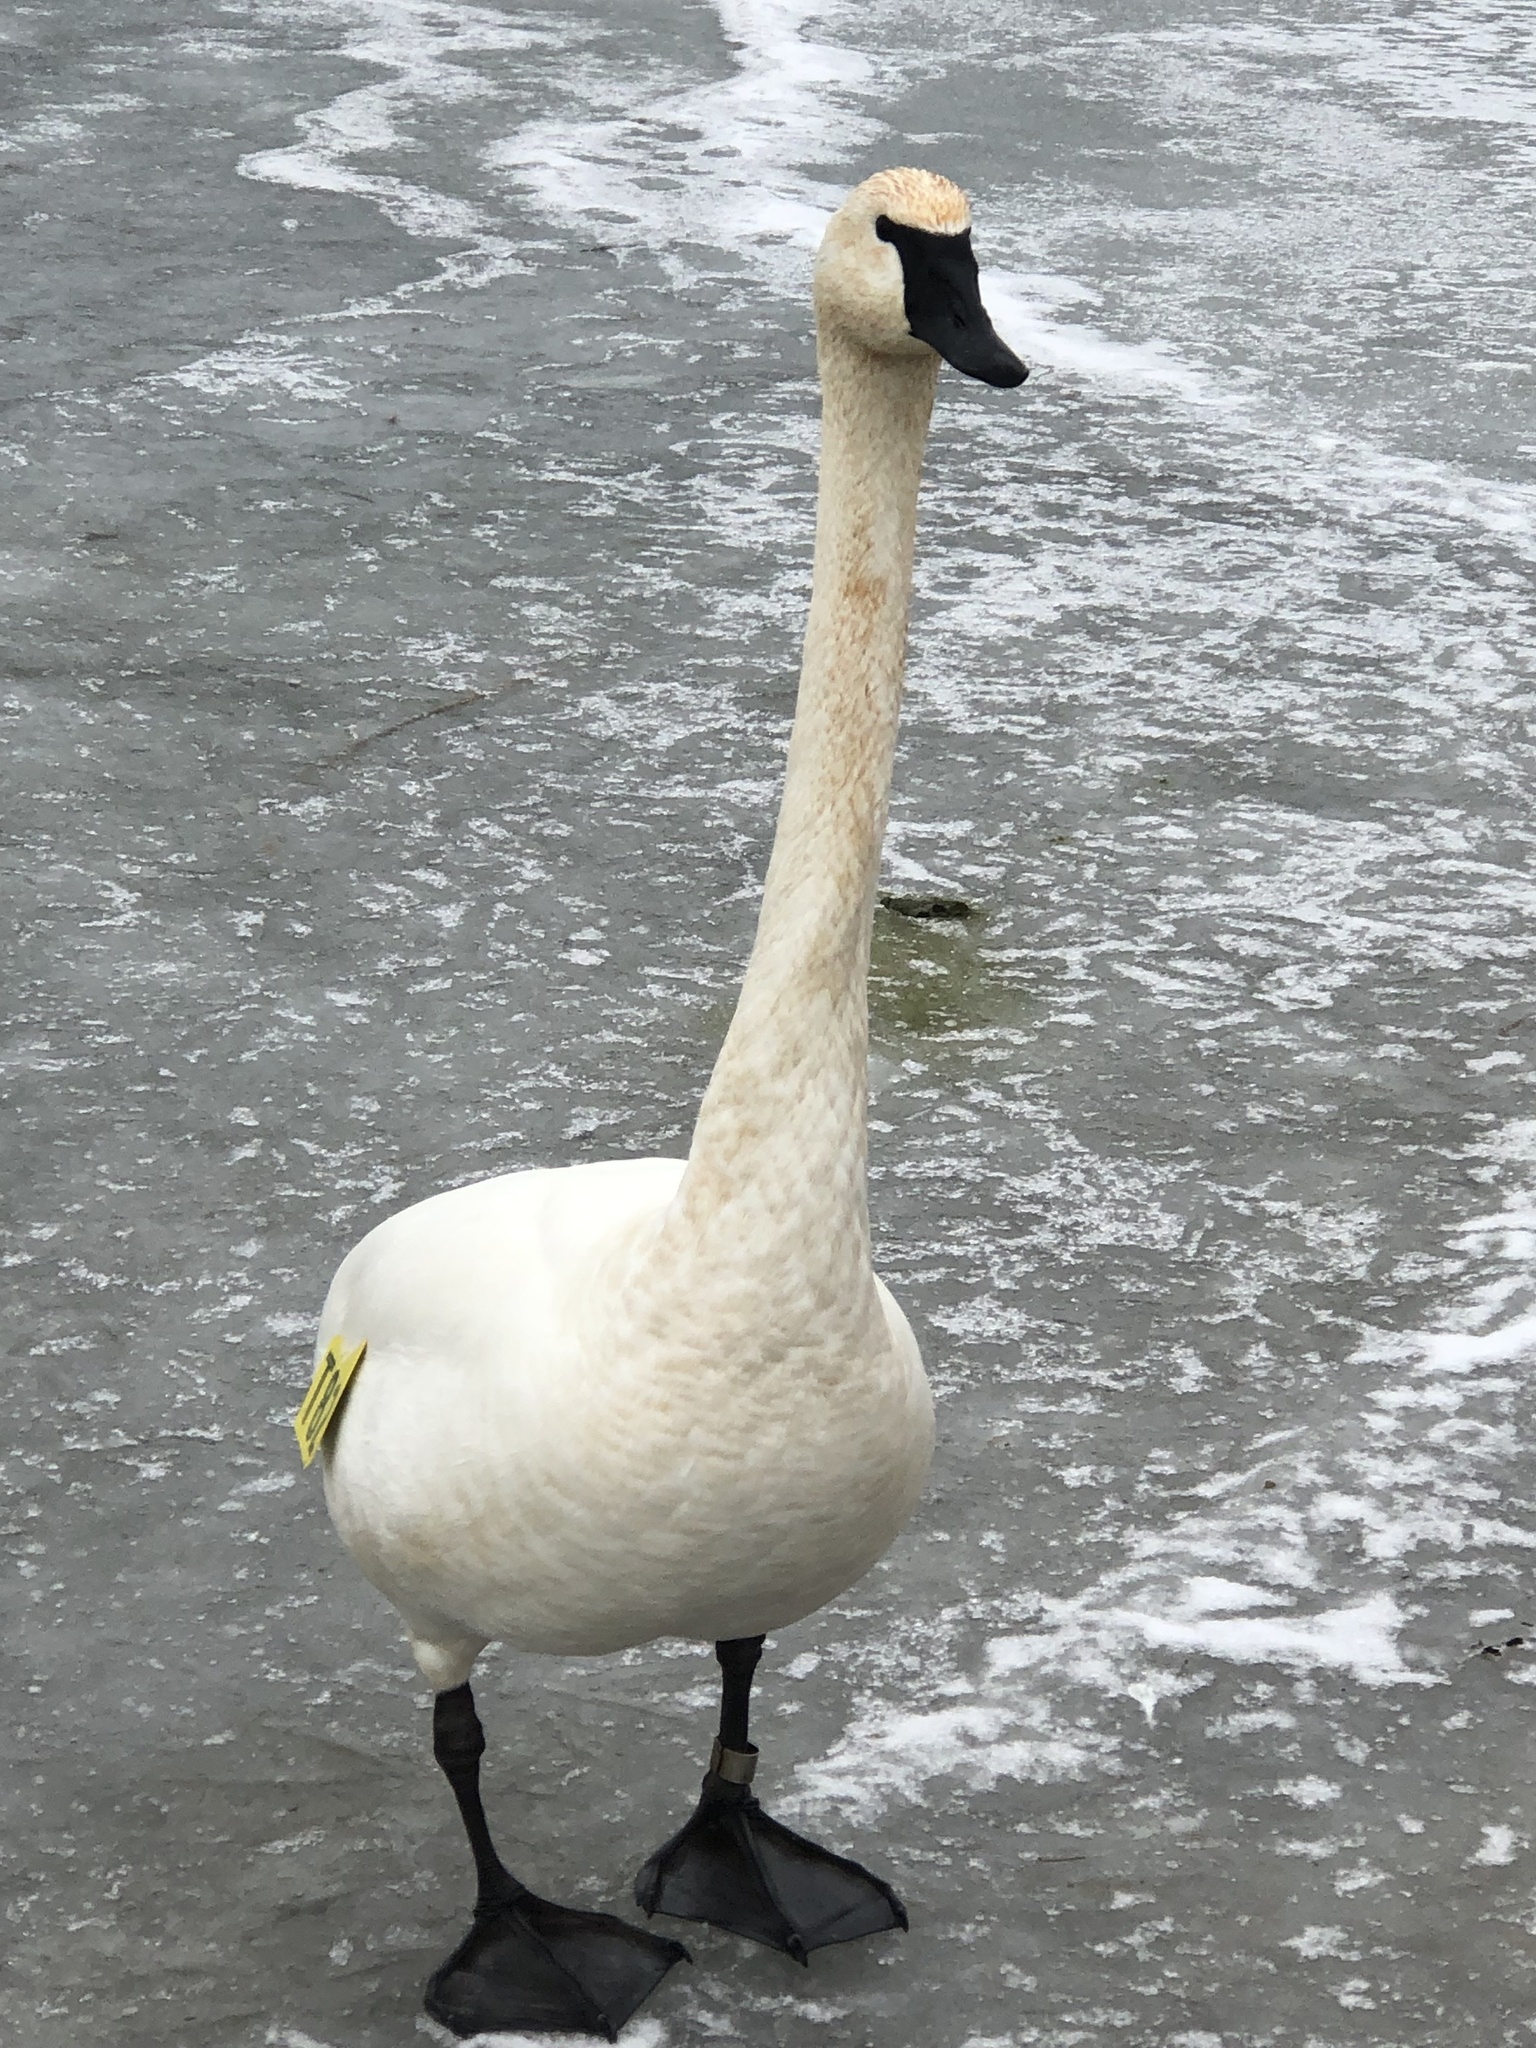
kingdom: Animalia
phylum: Chordata
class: Aves
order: Anseriformes
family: Anatidae
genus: Cygnus
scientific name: Cygnus buccinator
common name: Trumpeter swan
